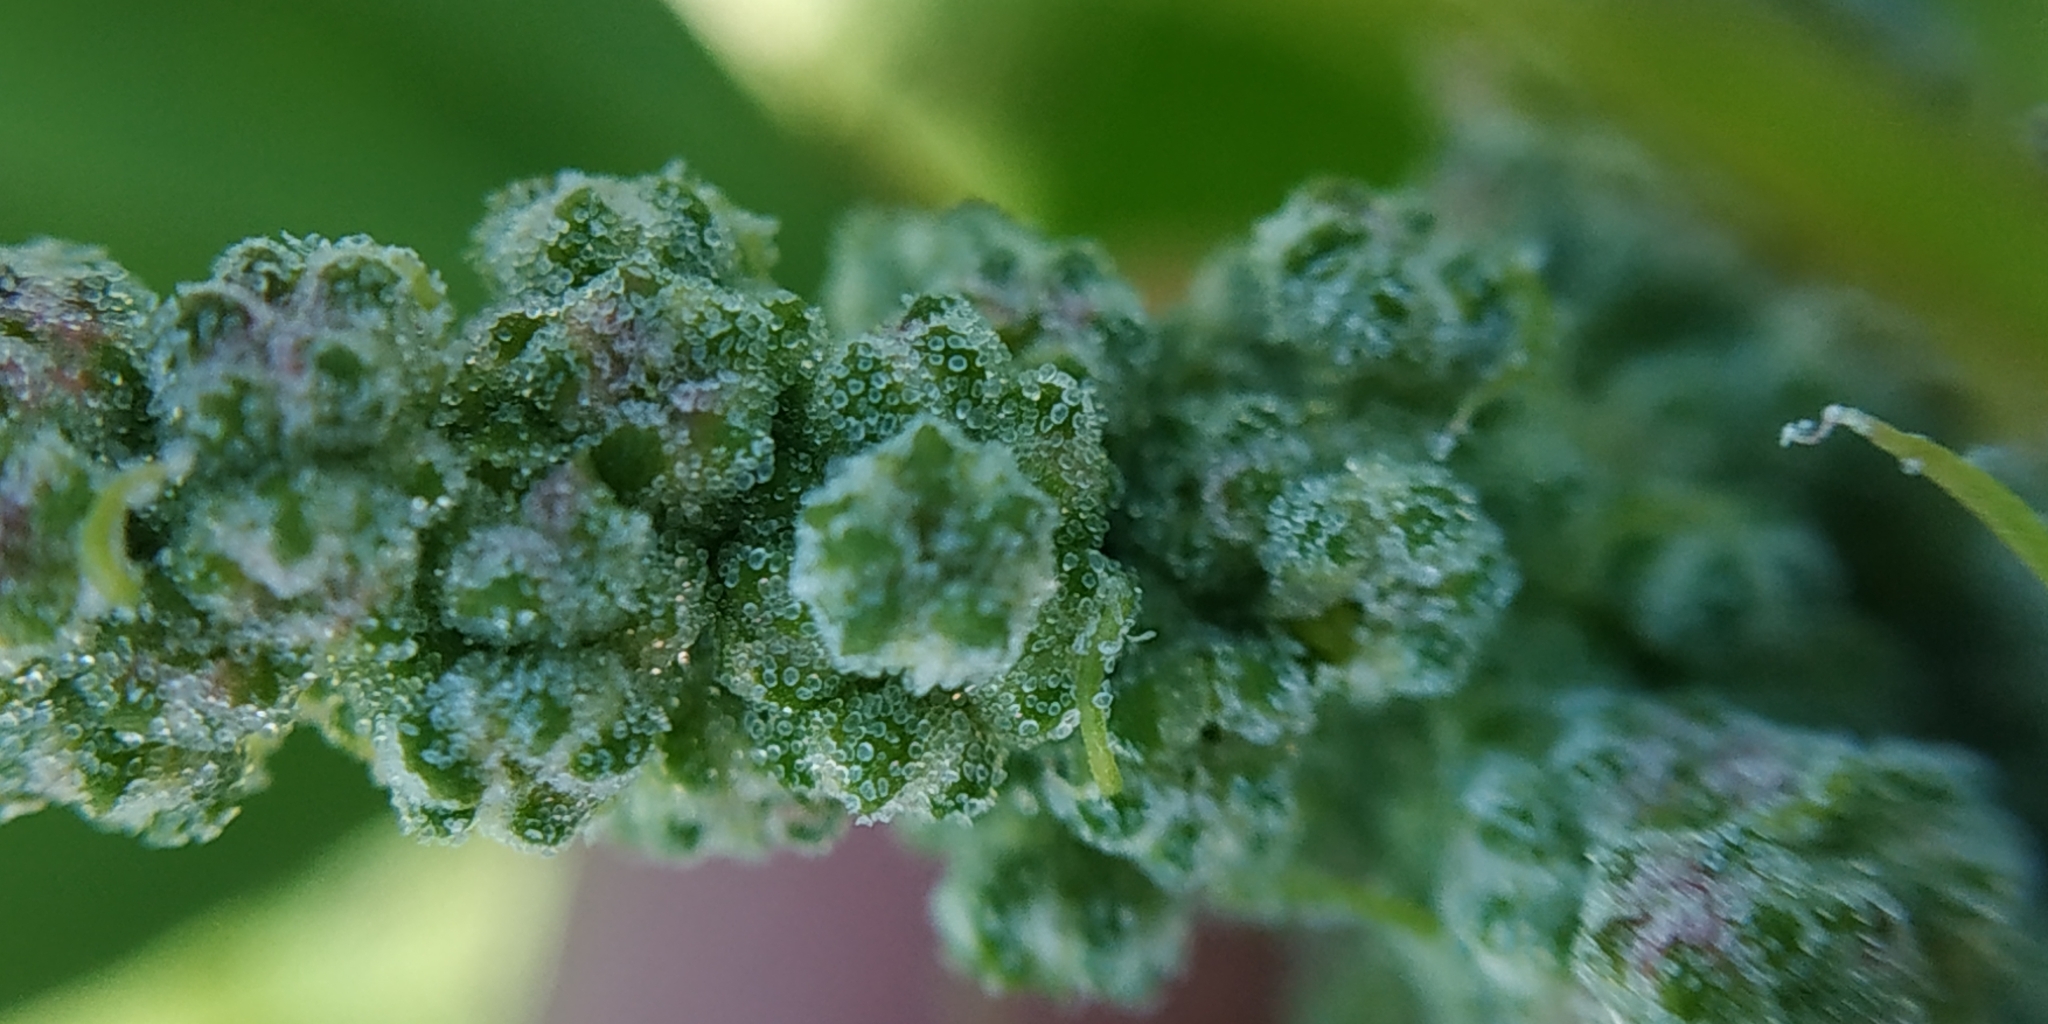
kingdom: Plantae
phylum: Tracheophyta
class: Magnoliopsida
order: Caryophyllales
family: Amaranthaceae
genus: Chenopodium
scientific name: Chenopodium album
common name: Fat-hen
